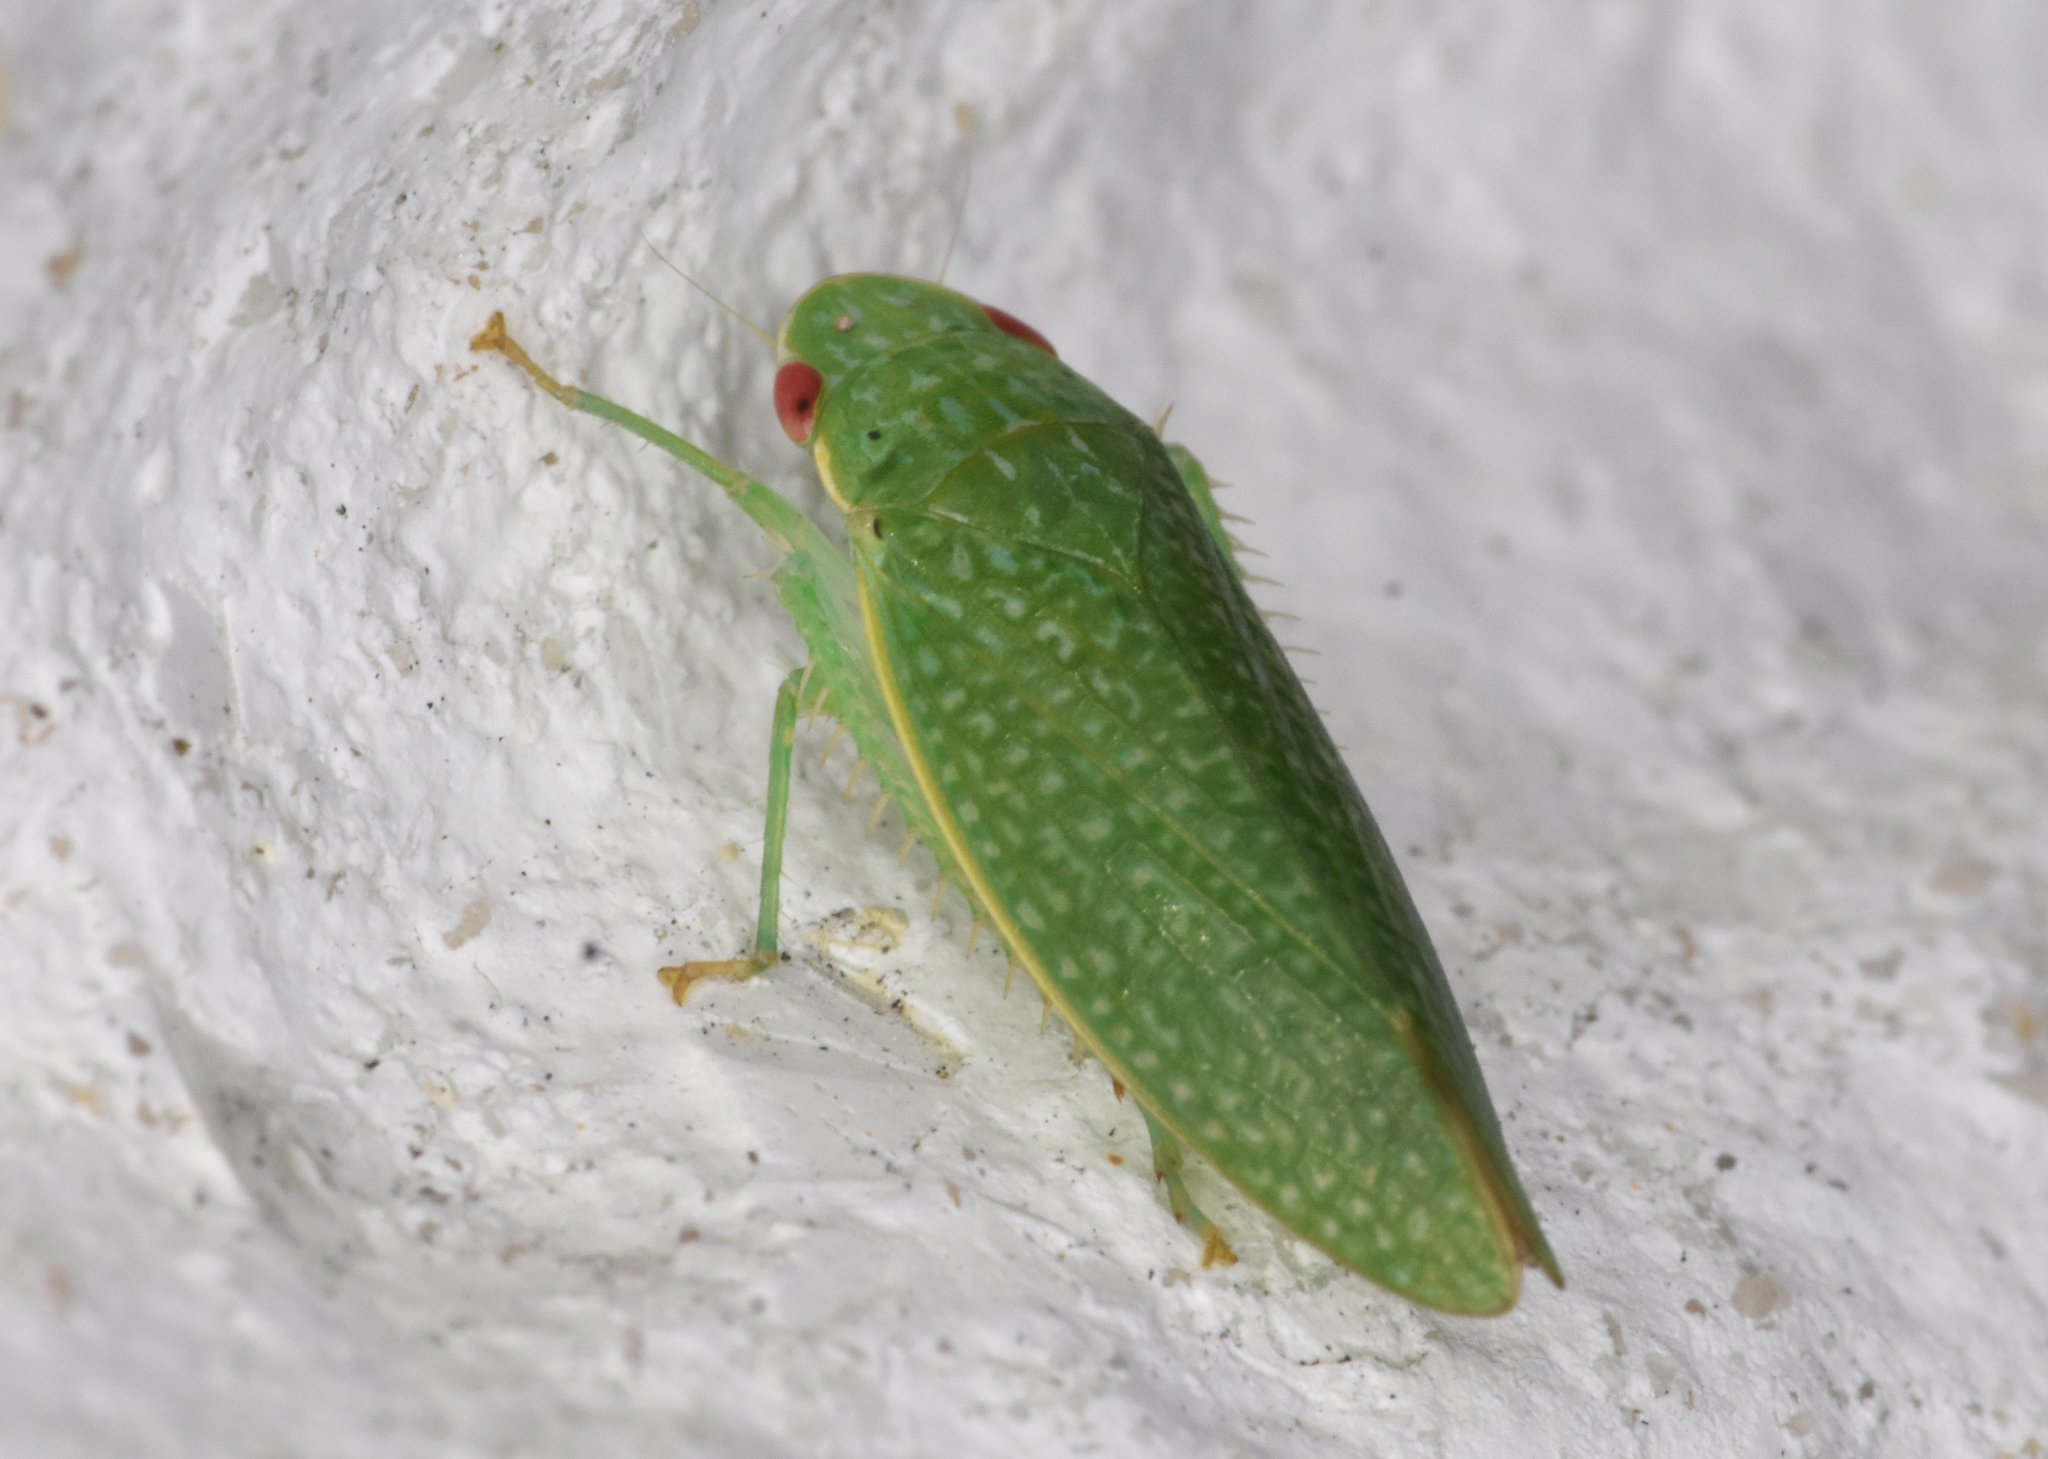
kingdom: Animalia
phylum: Arthropoda
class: Insecta
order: Hemiptera
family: Cicadellidae
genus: Rugosana
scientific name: Rugosana querci
